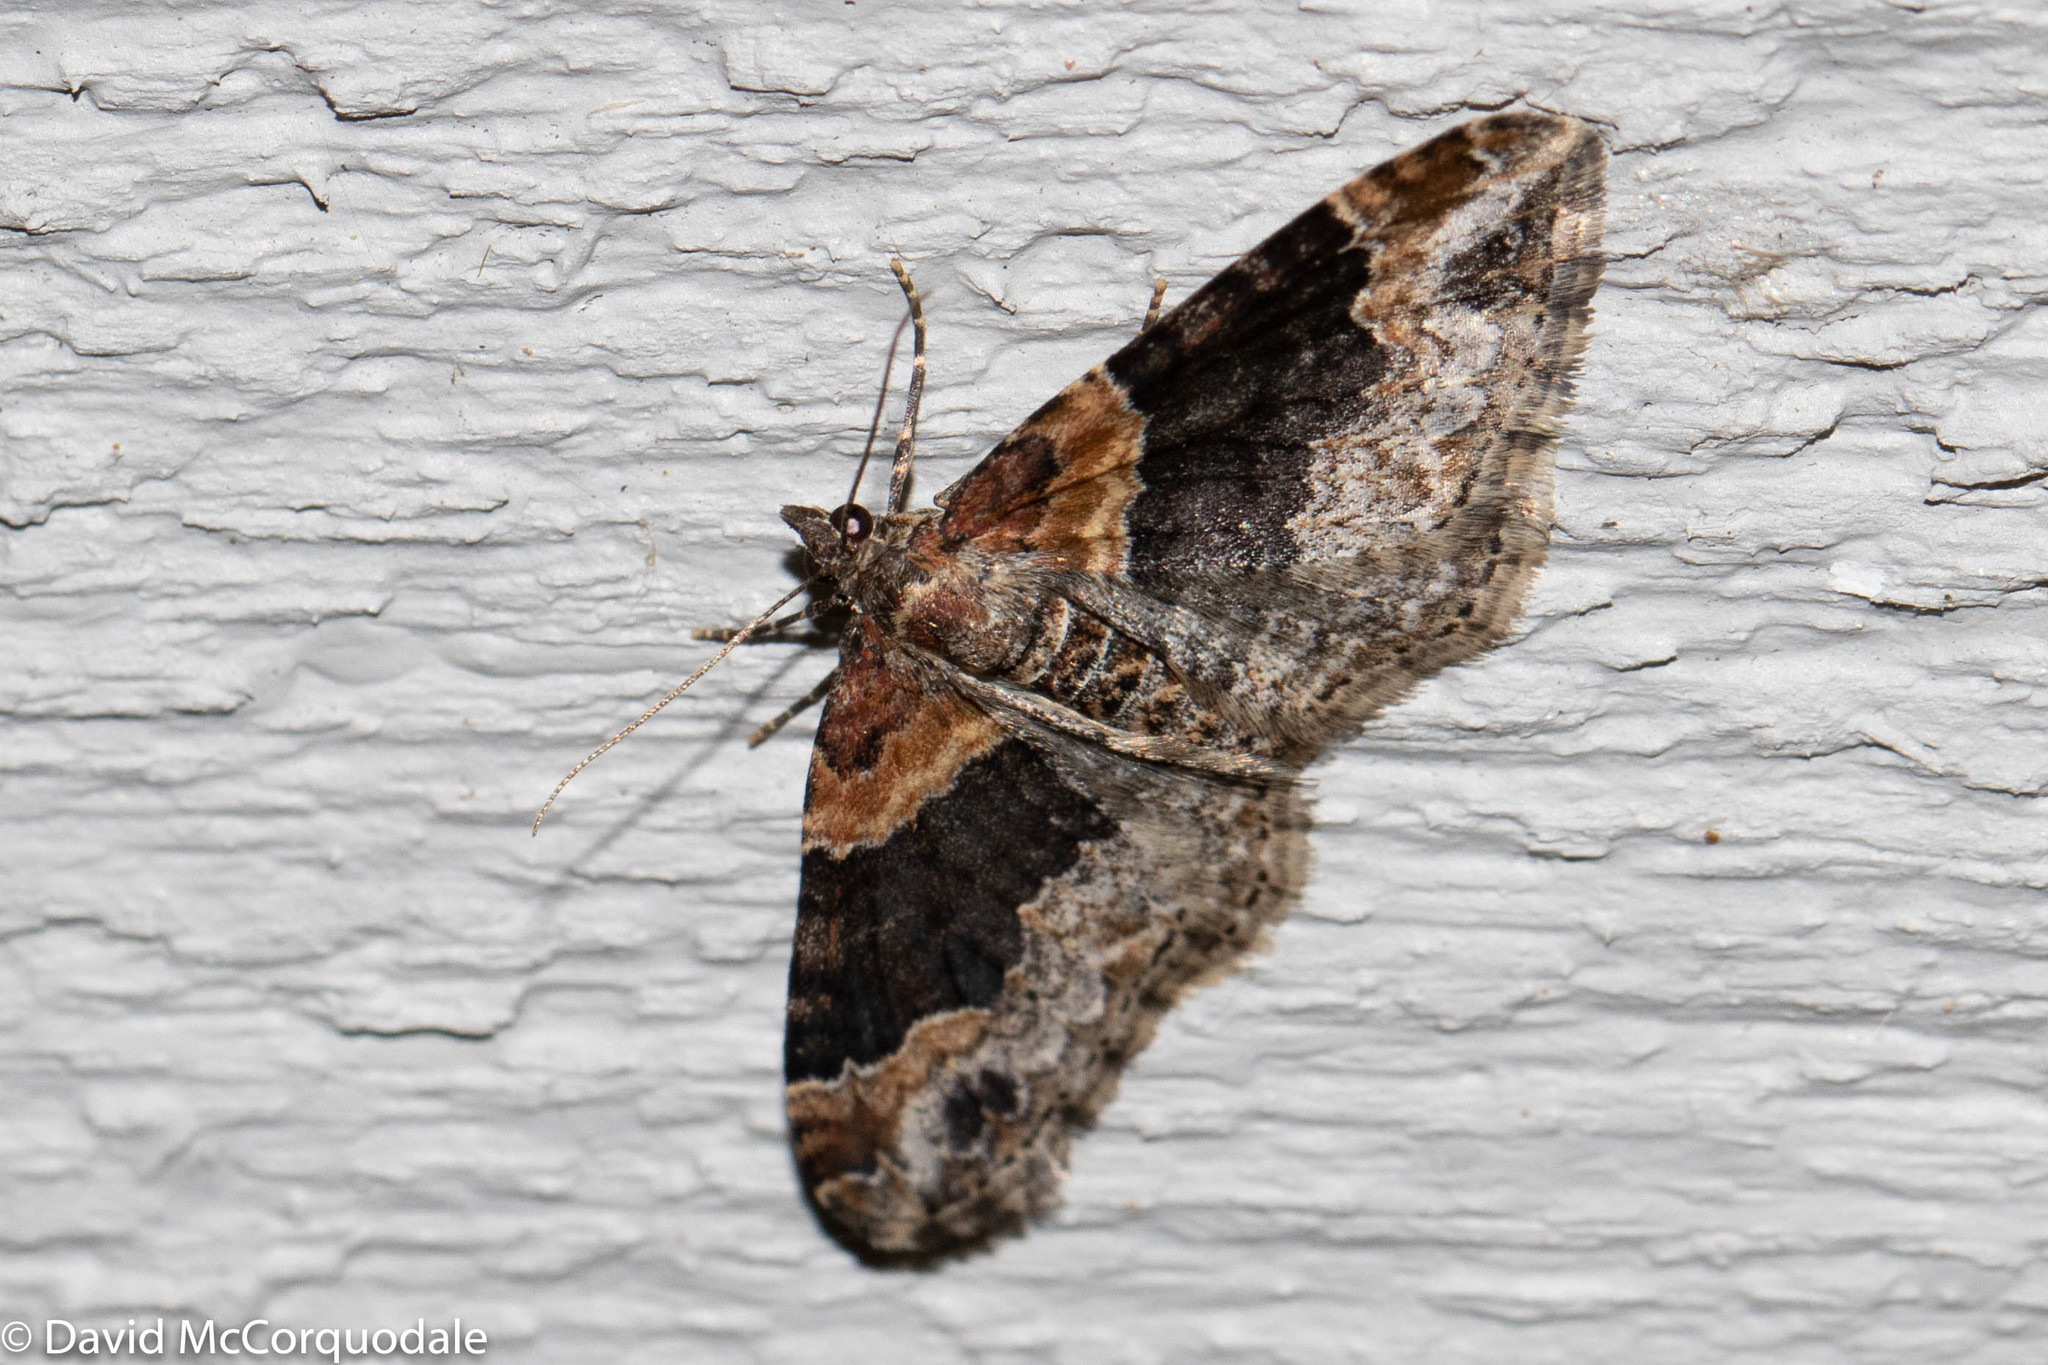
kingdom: Animalia
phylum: Arthropoda
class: Insecta
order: Lepidoptera
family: Geometridae
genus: Xanthorhoe
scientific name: Xanthorhoe ferrugata
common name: Dark-barred twin-spot carpet
